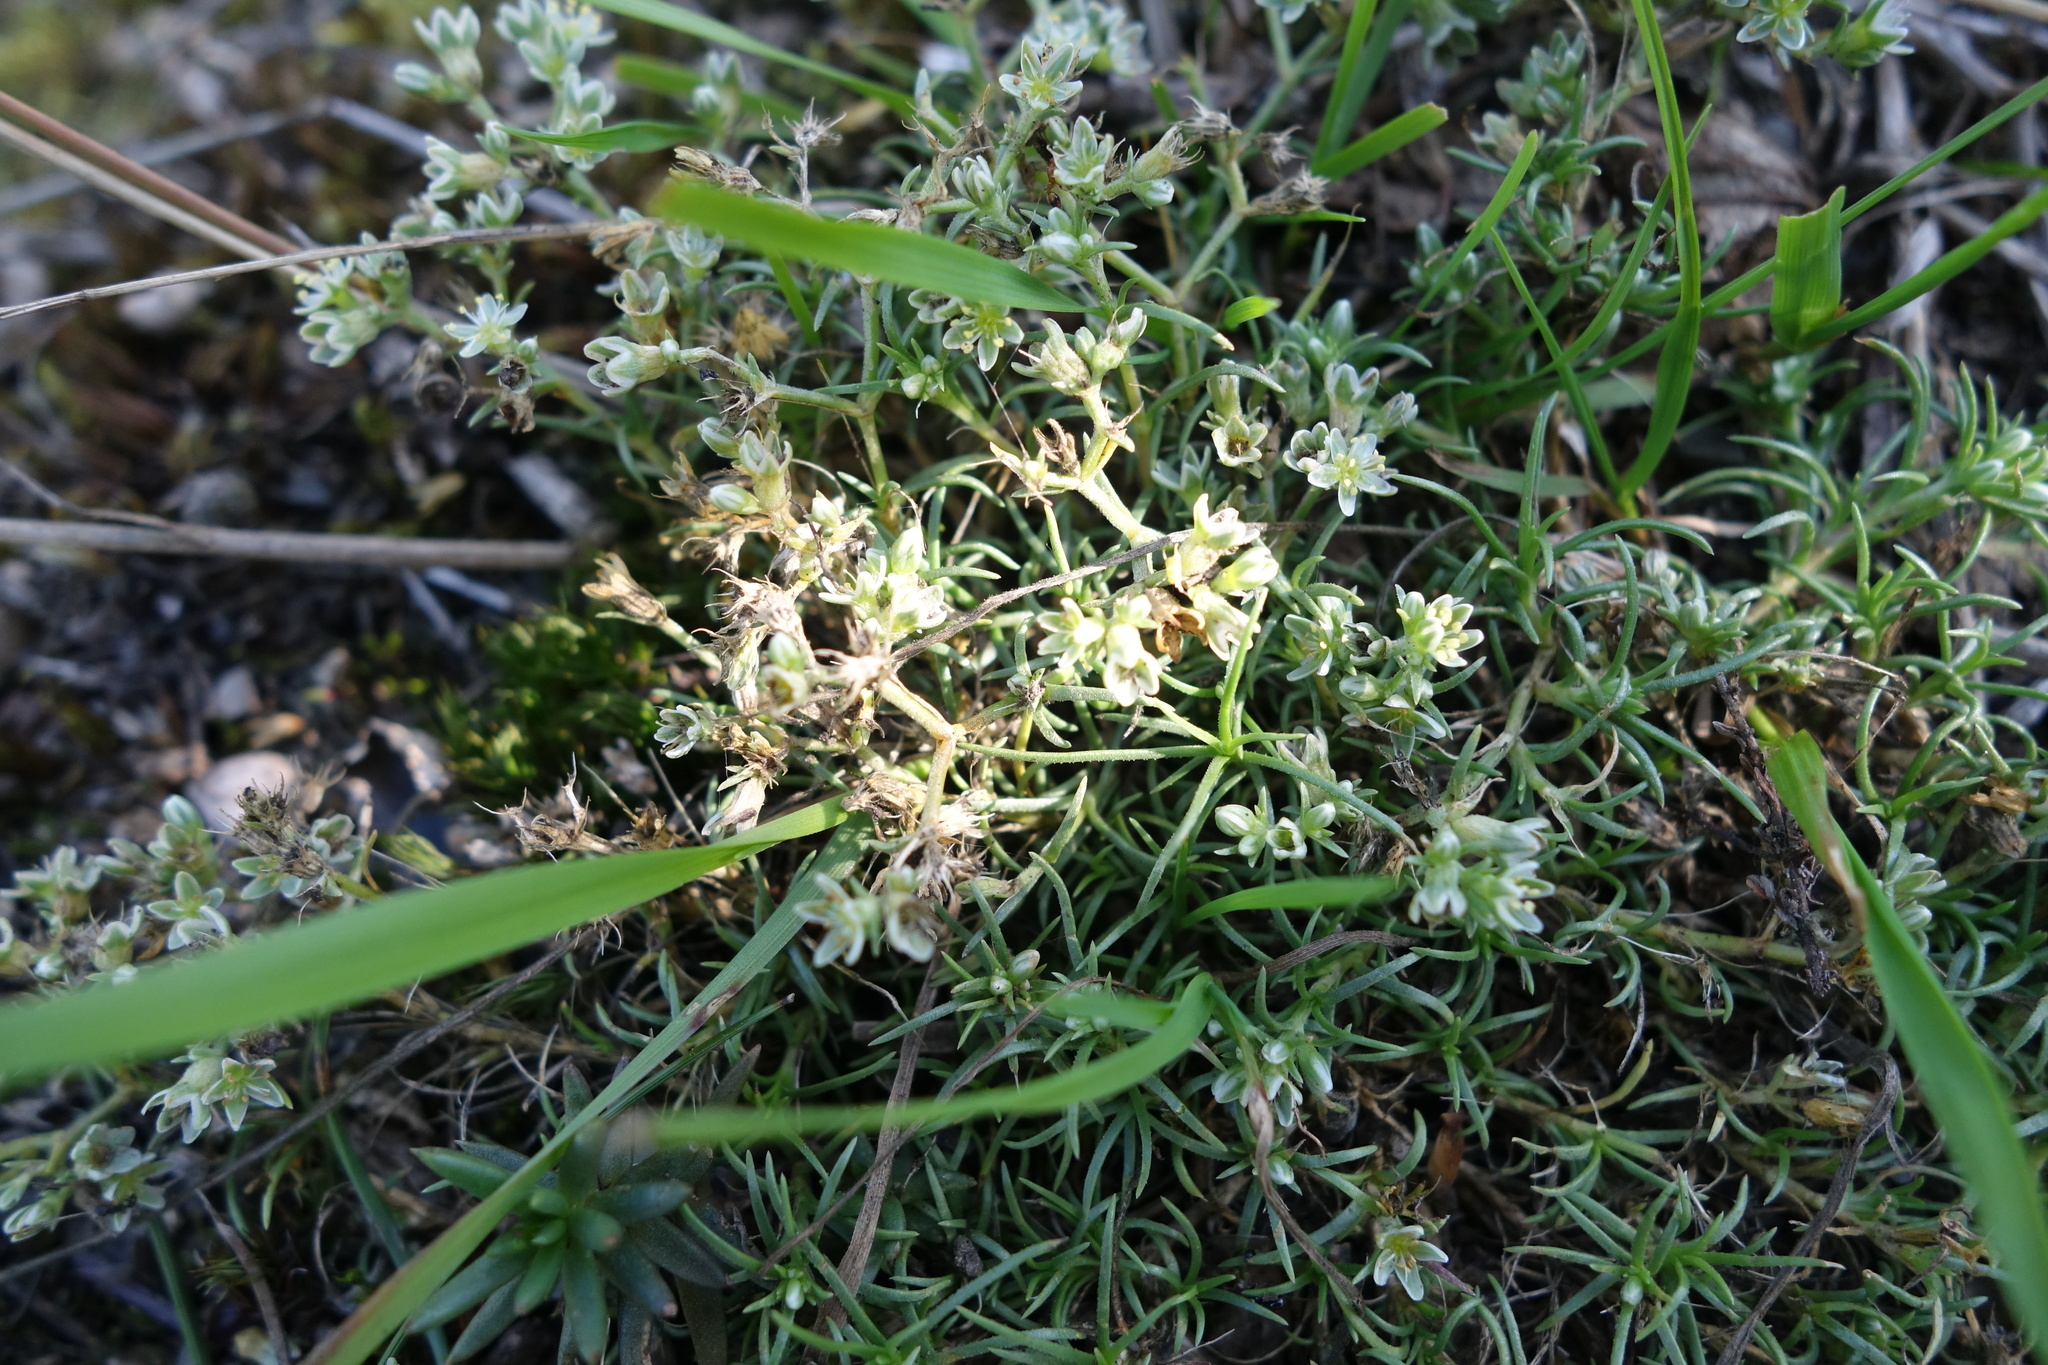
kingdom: Plantae
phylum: Tracheophyta
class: Magnoliopsida
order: Caryophyllales
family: Caryophyllaceae
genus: Scleranthus
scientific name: Scleranthus perennis
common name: Perennial knawel
